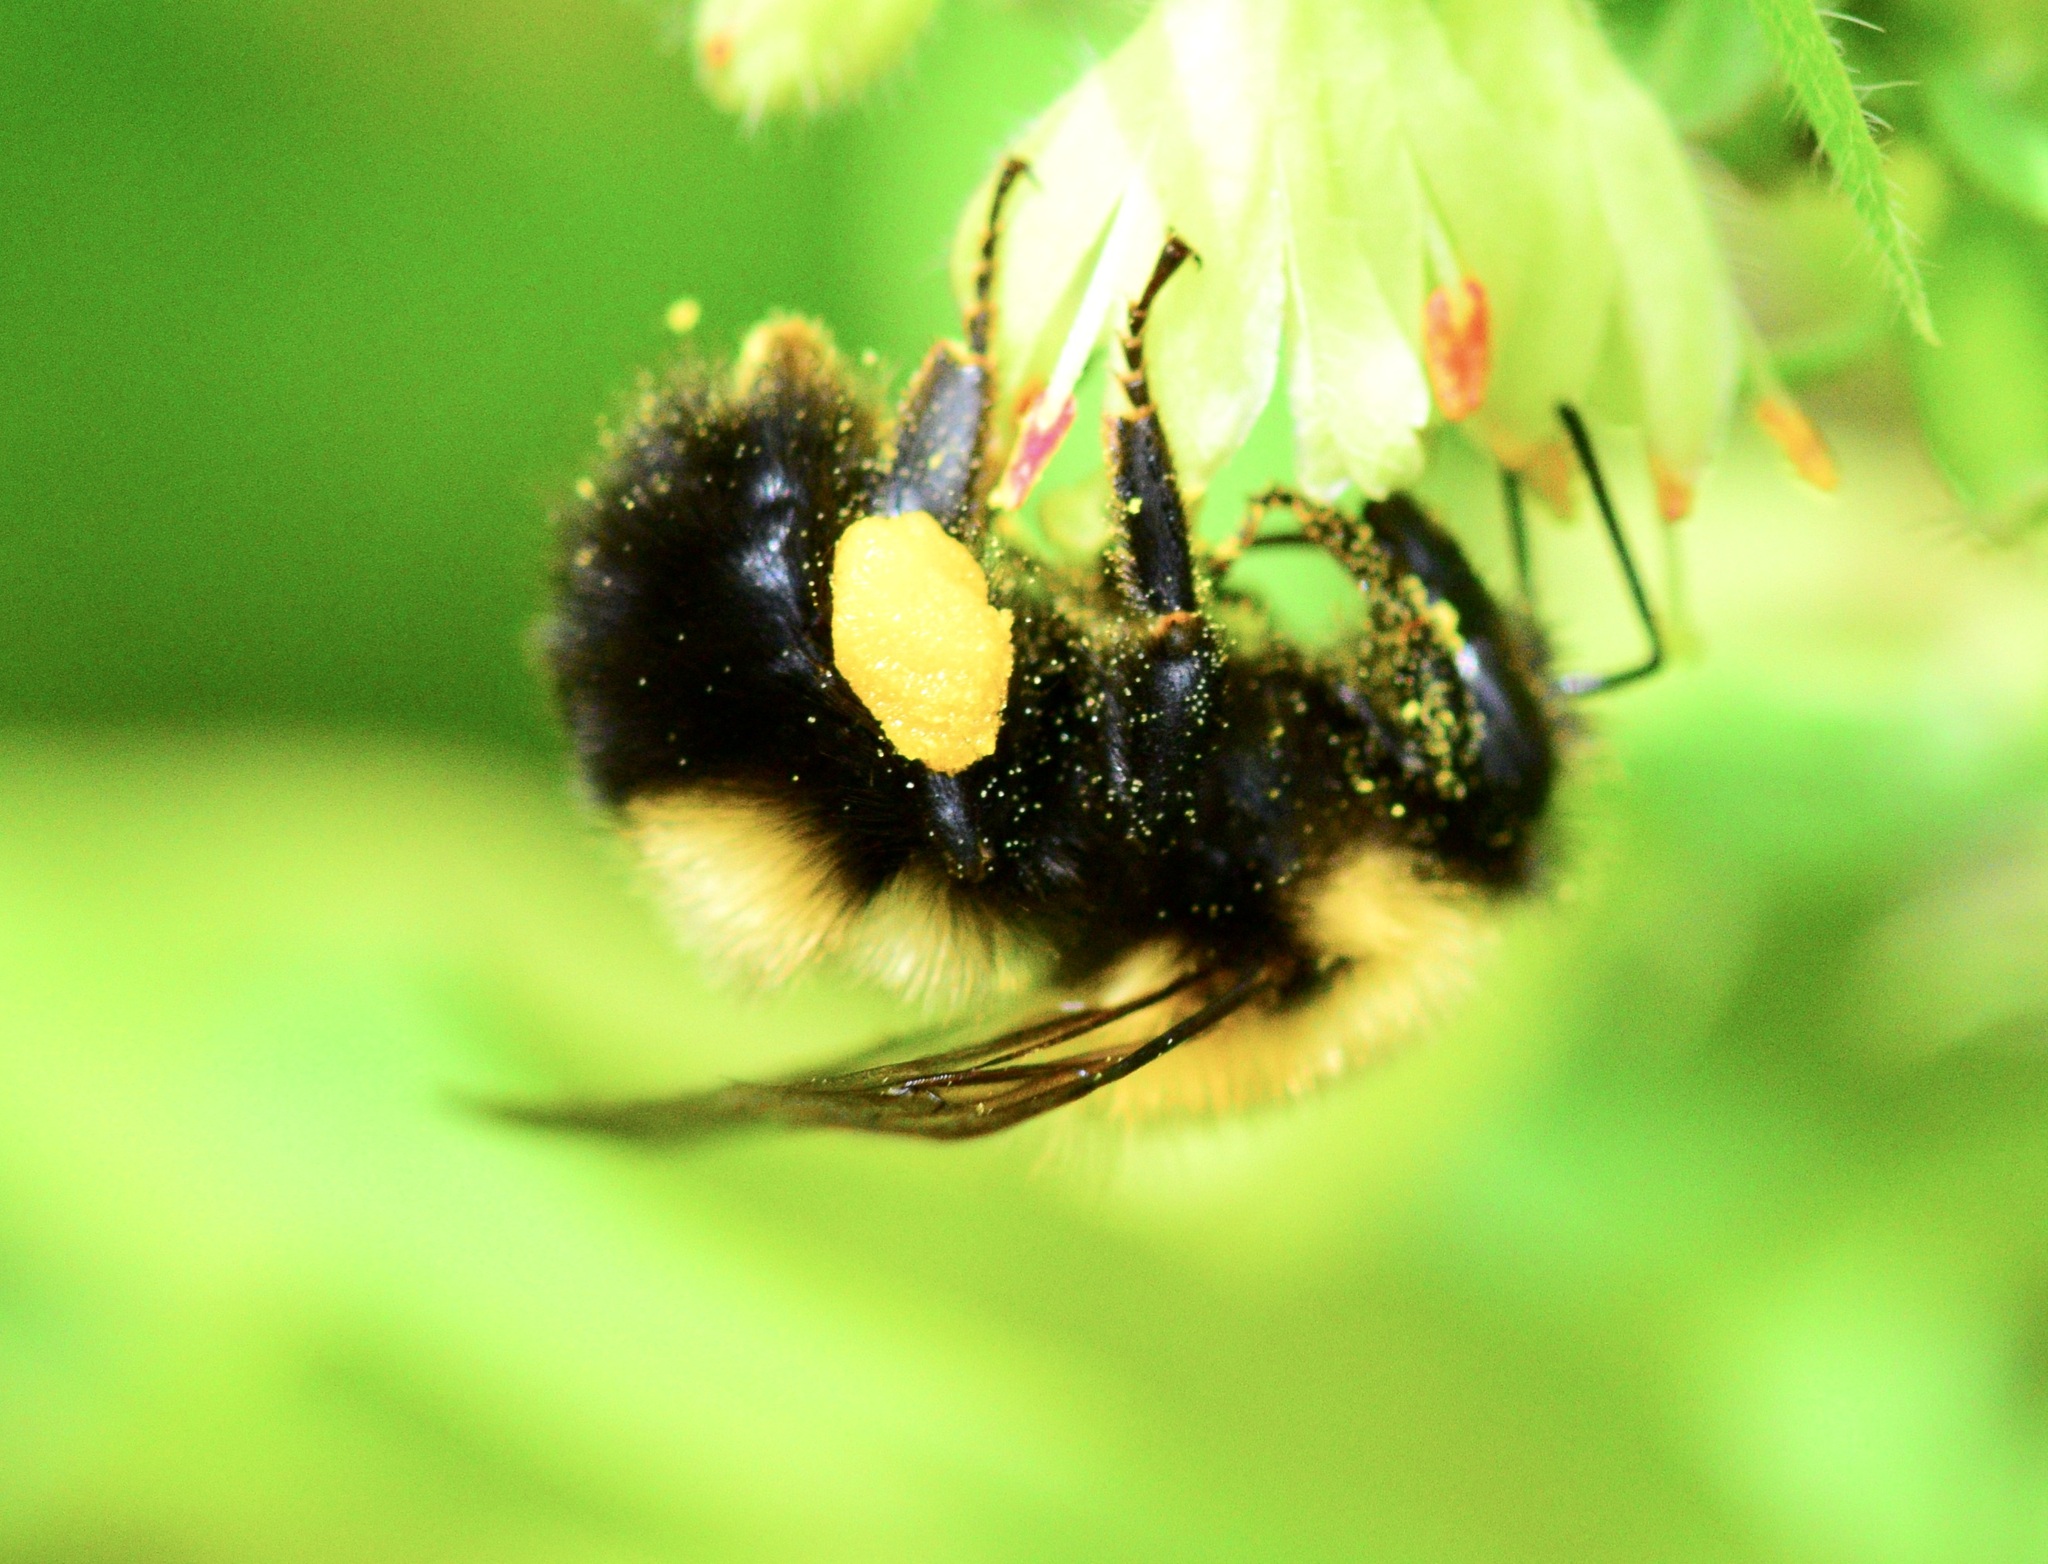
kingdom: Animalia
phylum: Arthropoda
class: Insecta
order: Hymenoptera
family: Apidae
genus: Bombus
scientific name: Bombus perplexus
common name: Confusing bumble bee
